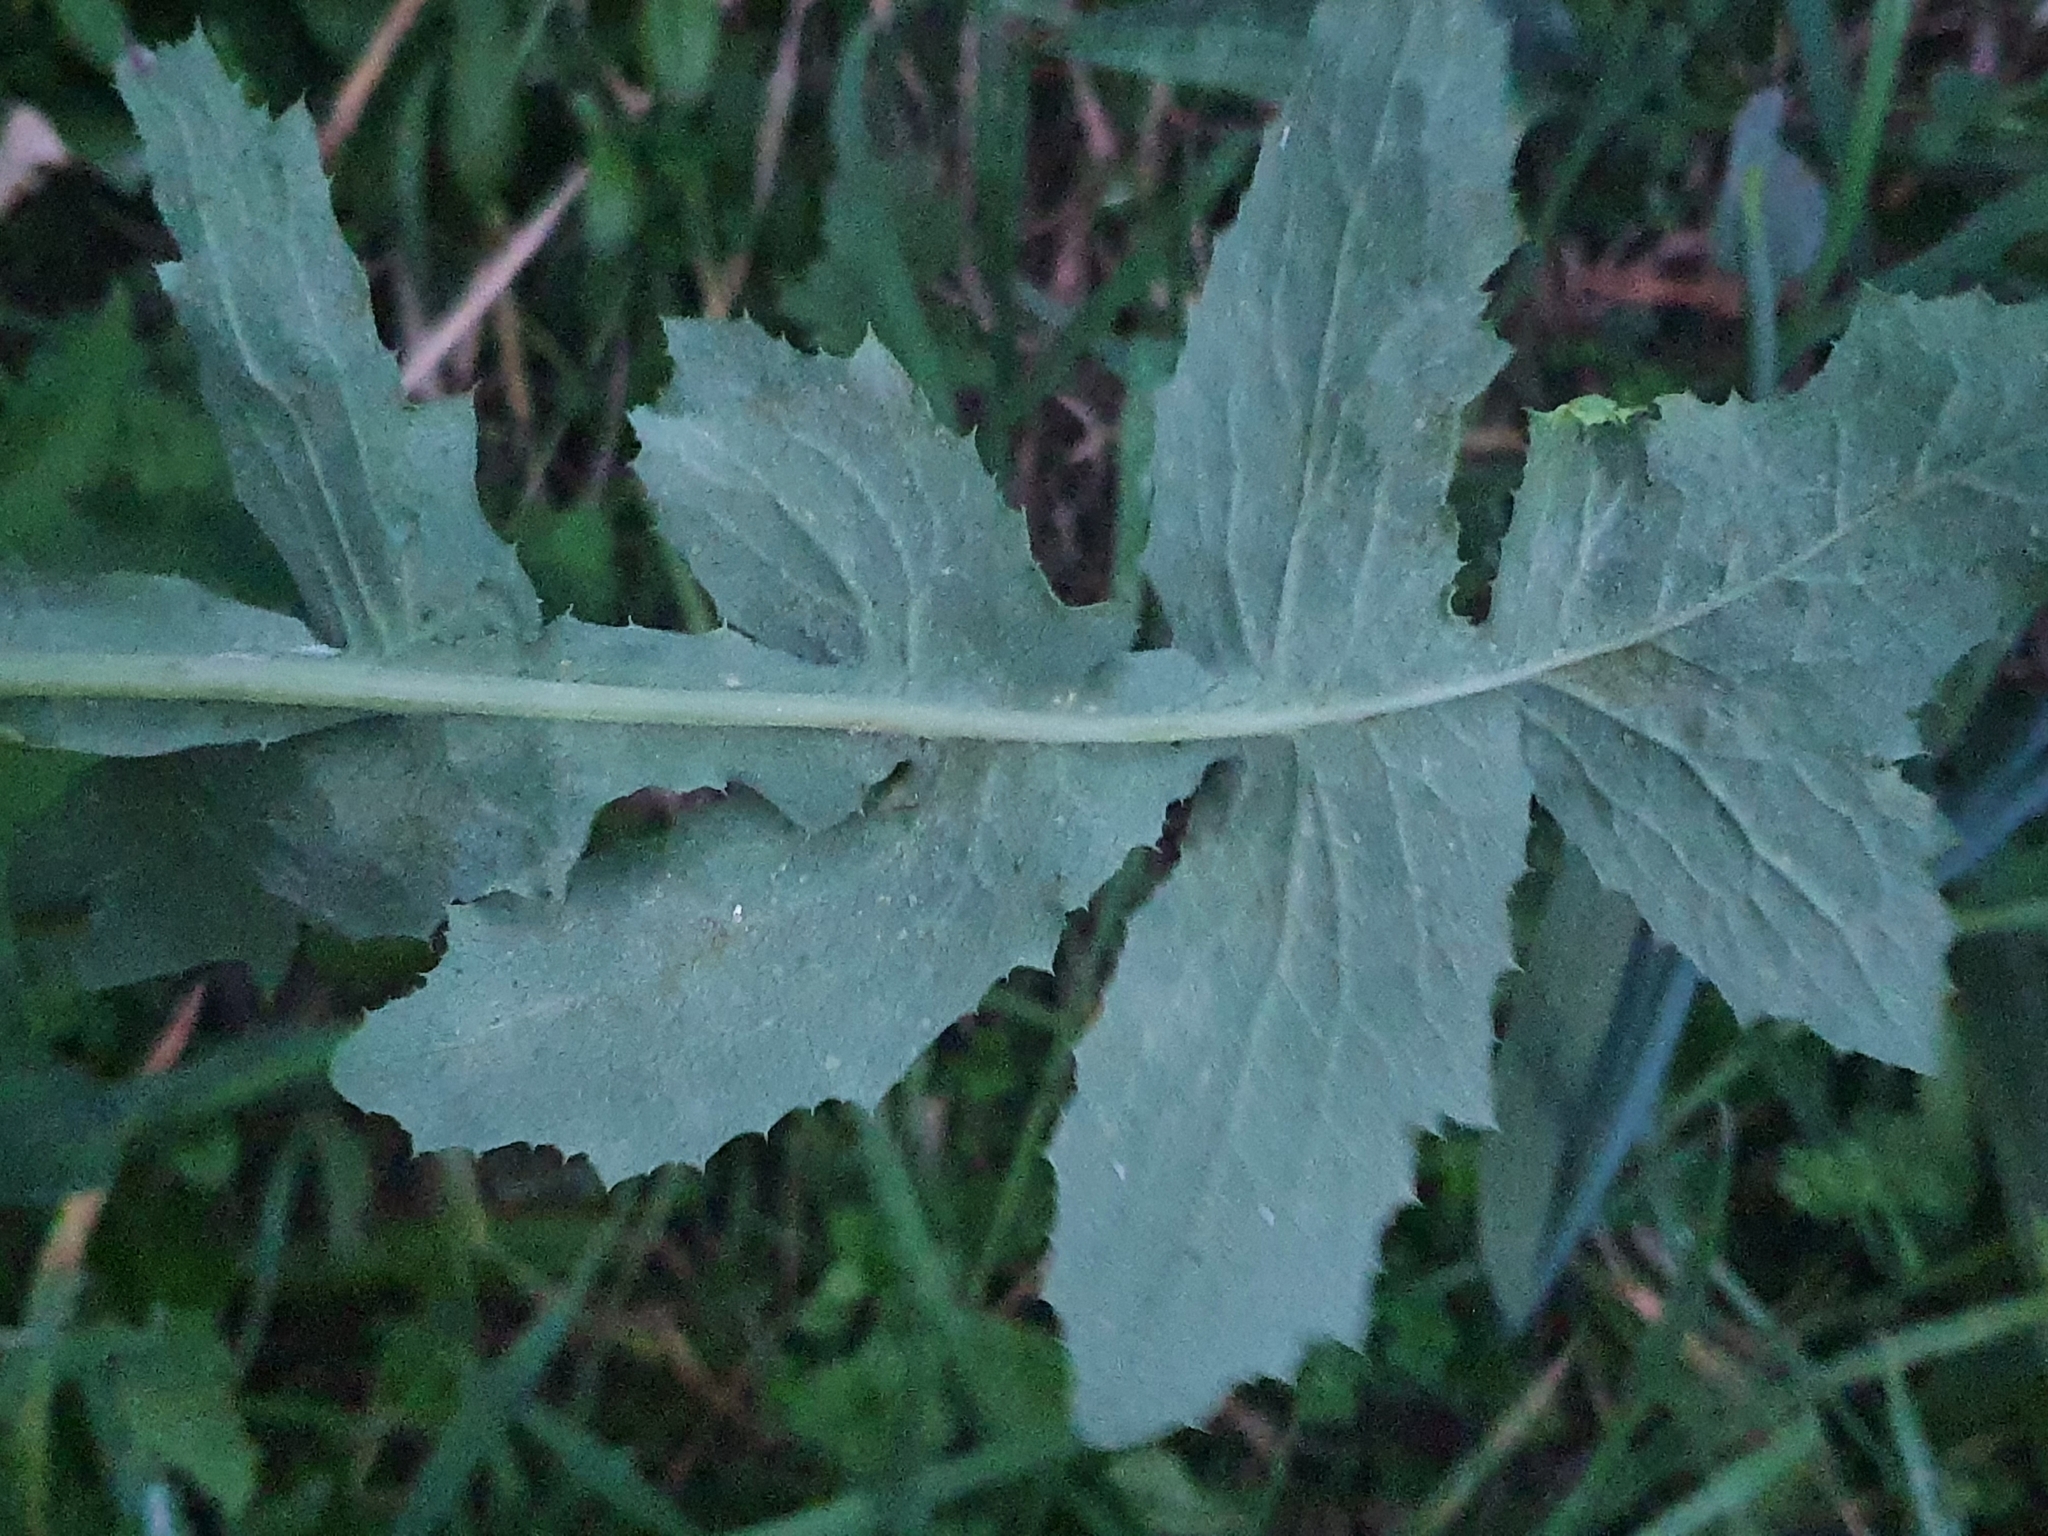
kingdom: Plantae
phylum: Tracheophyta
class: Magnoliopsida
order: Asterales
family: Asteraceae
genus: Sonchus
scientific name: Sonchus oleraceus
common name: Common sowthistle
